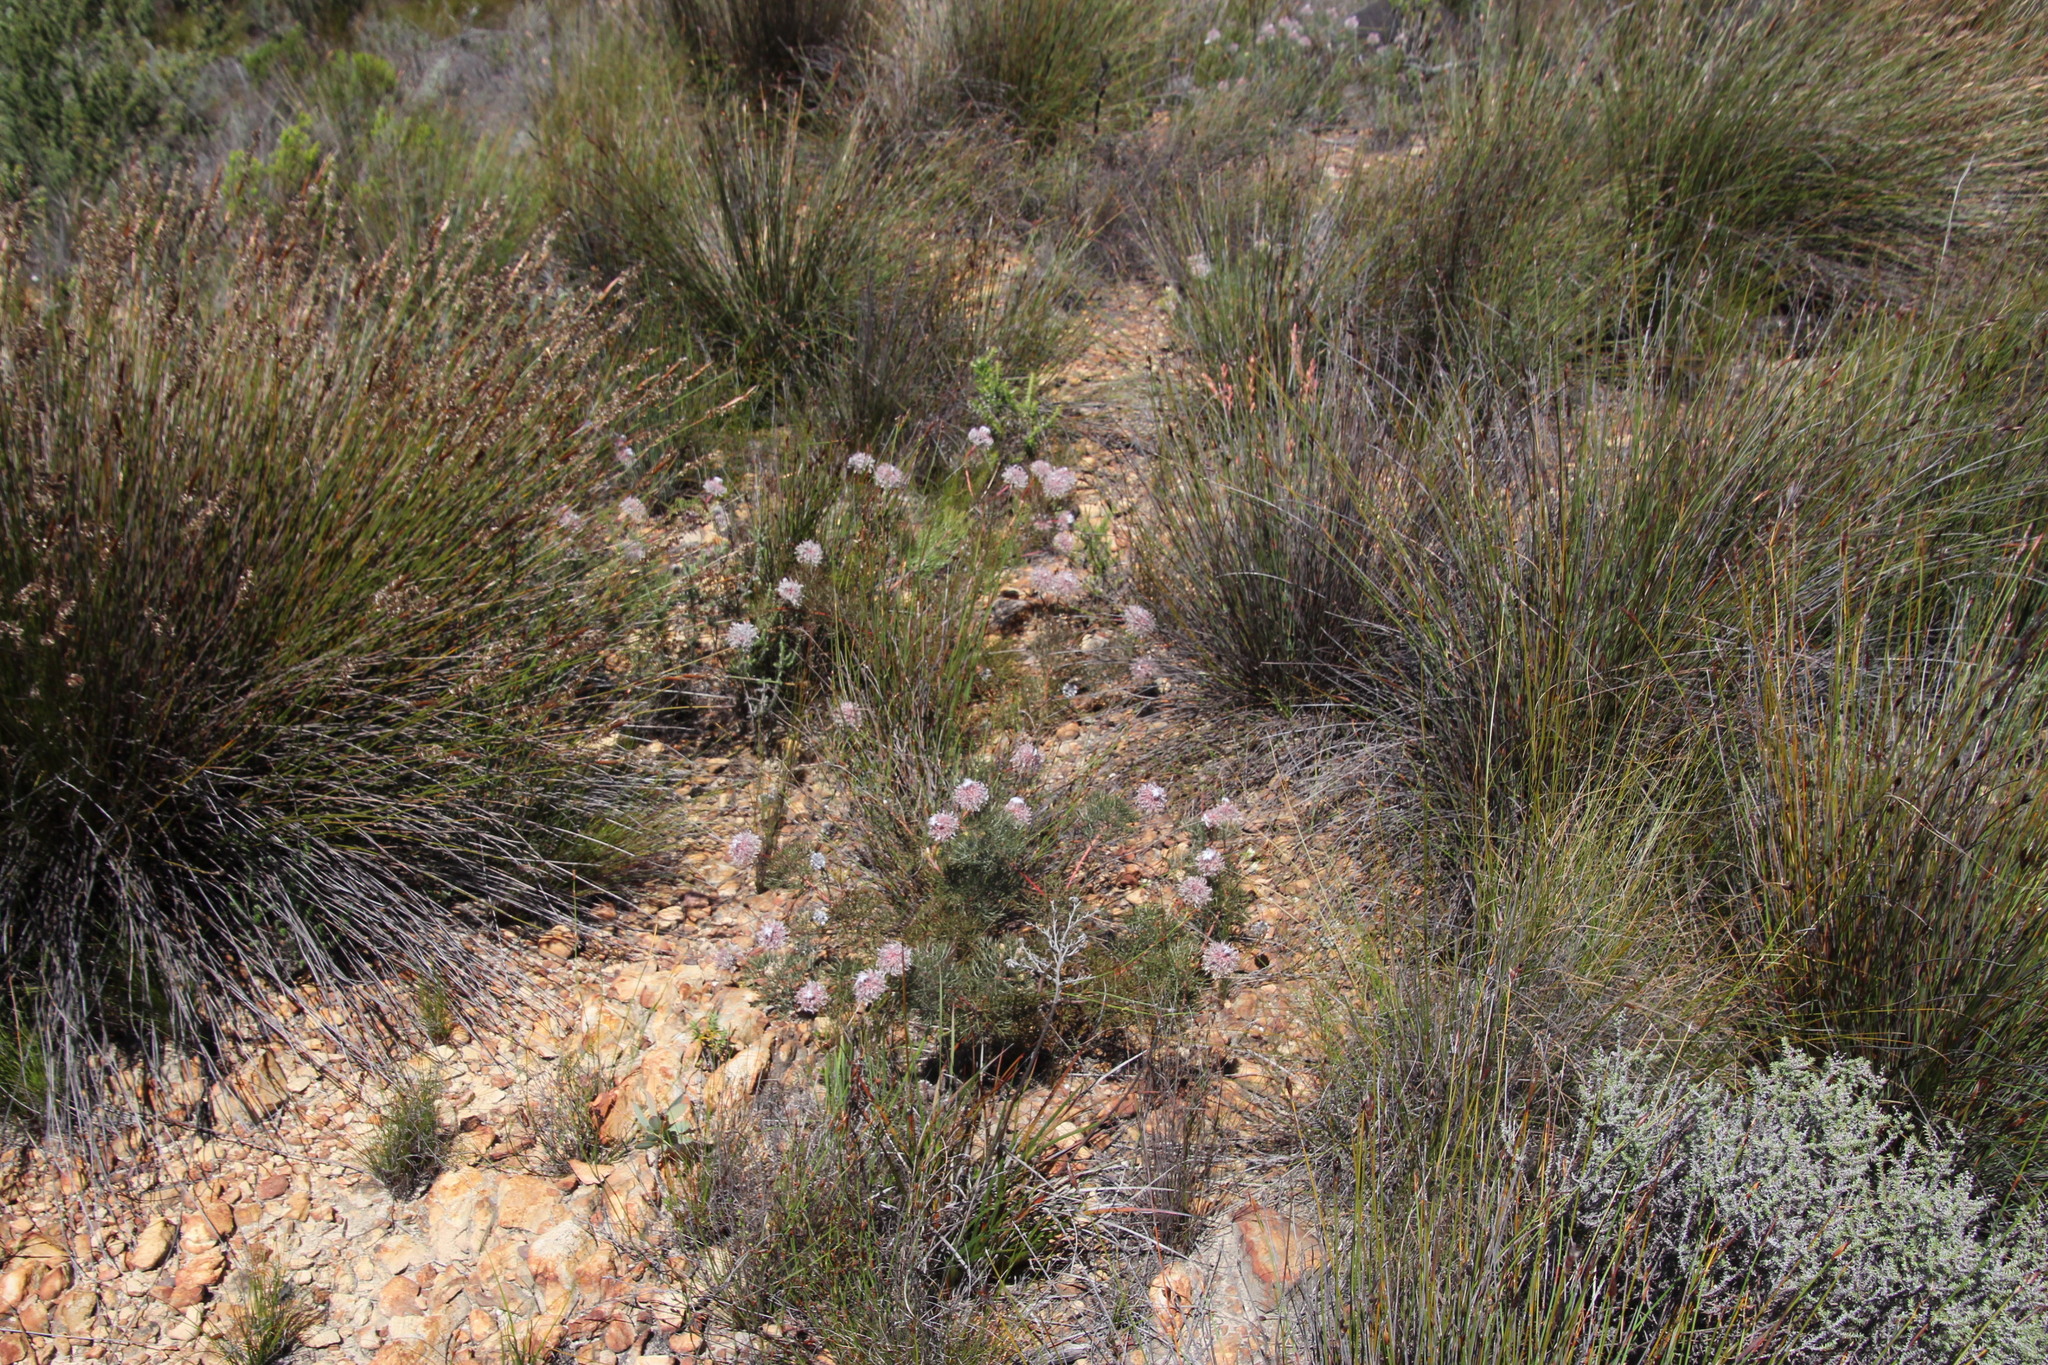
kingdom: Plantae
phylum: Tracheophyta
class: Magnoliopsida
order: Proteales
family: Proteaceae
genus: Serruria
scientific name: Serruria pedunculata
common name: Fan-leaf spiderhead
